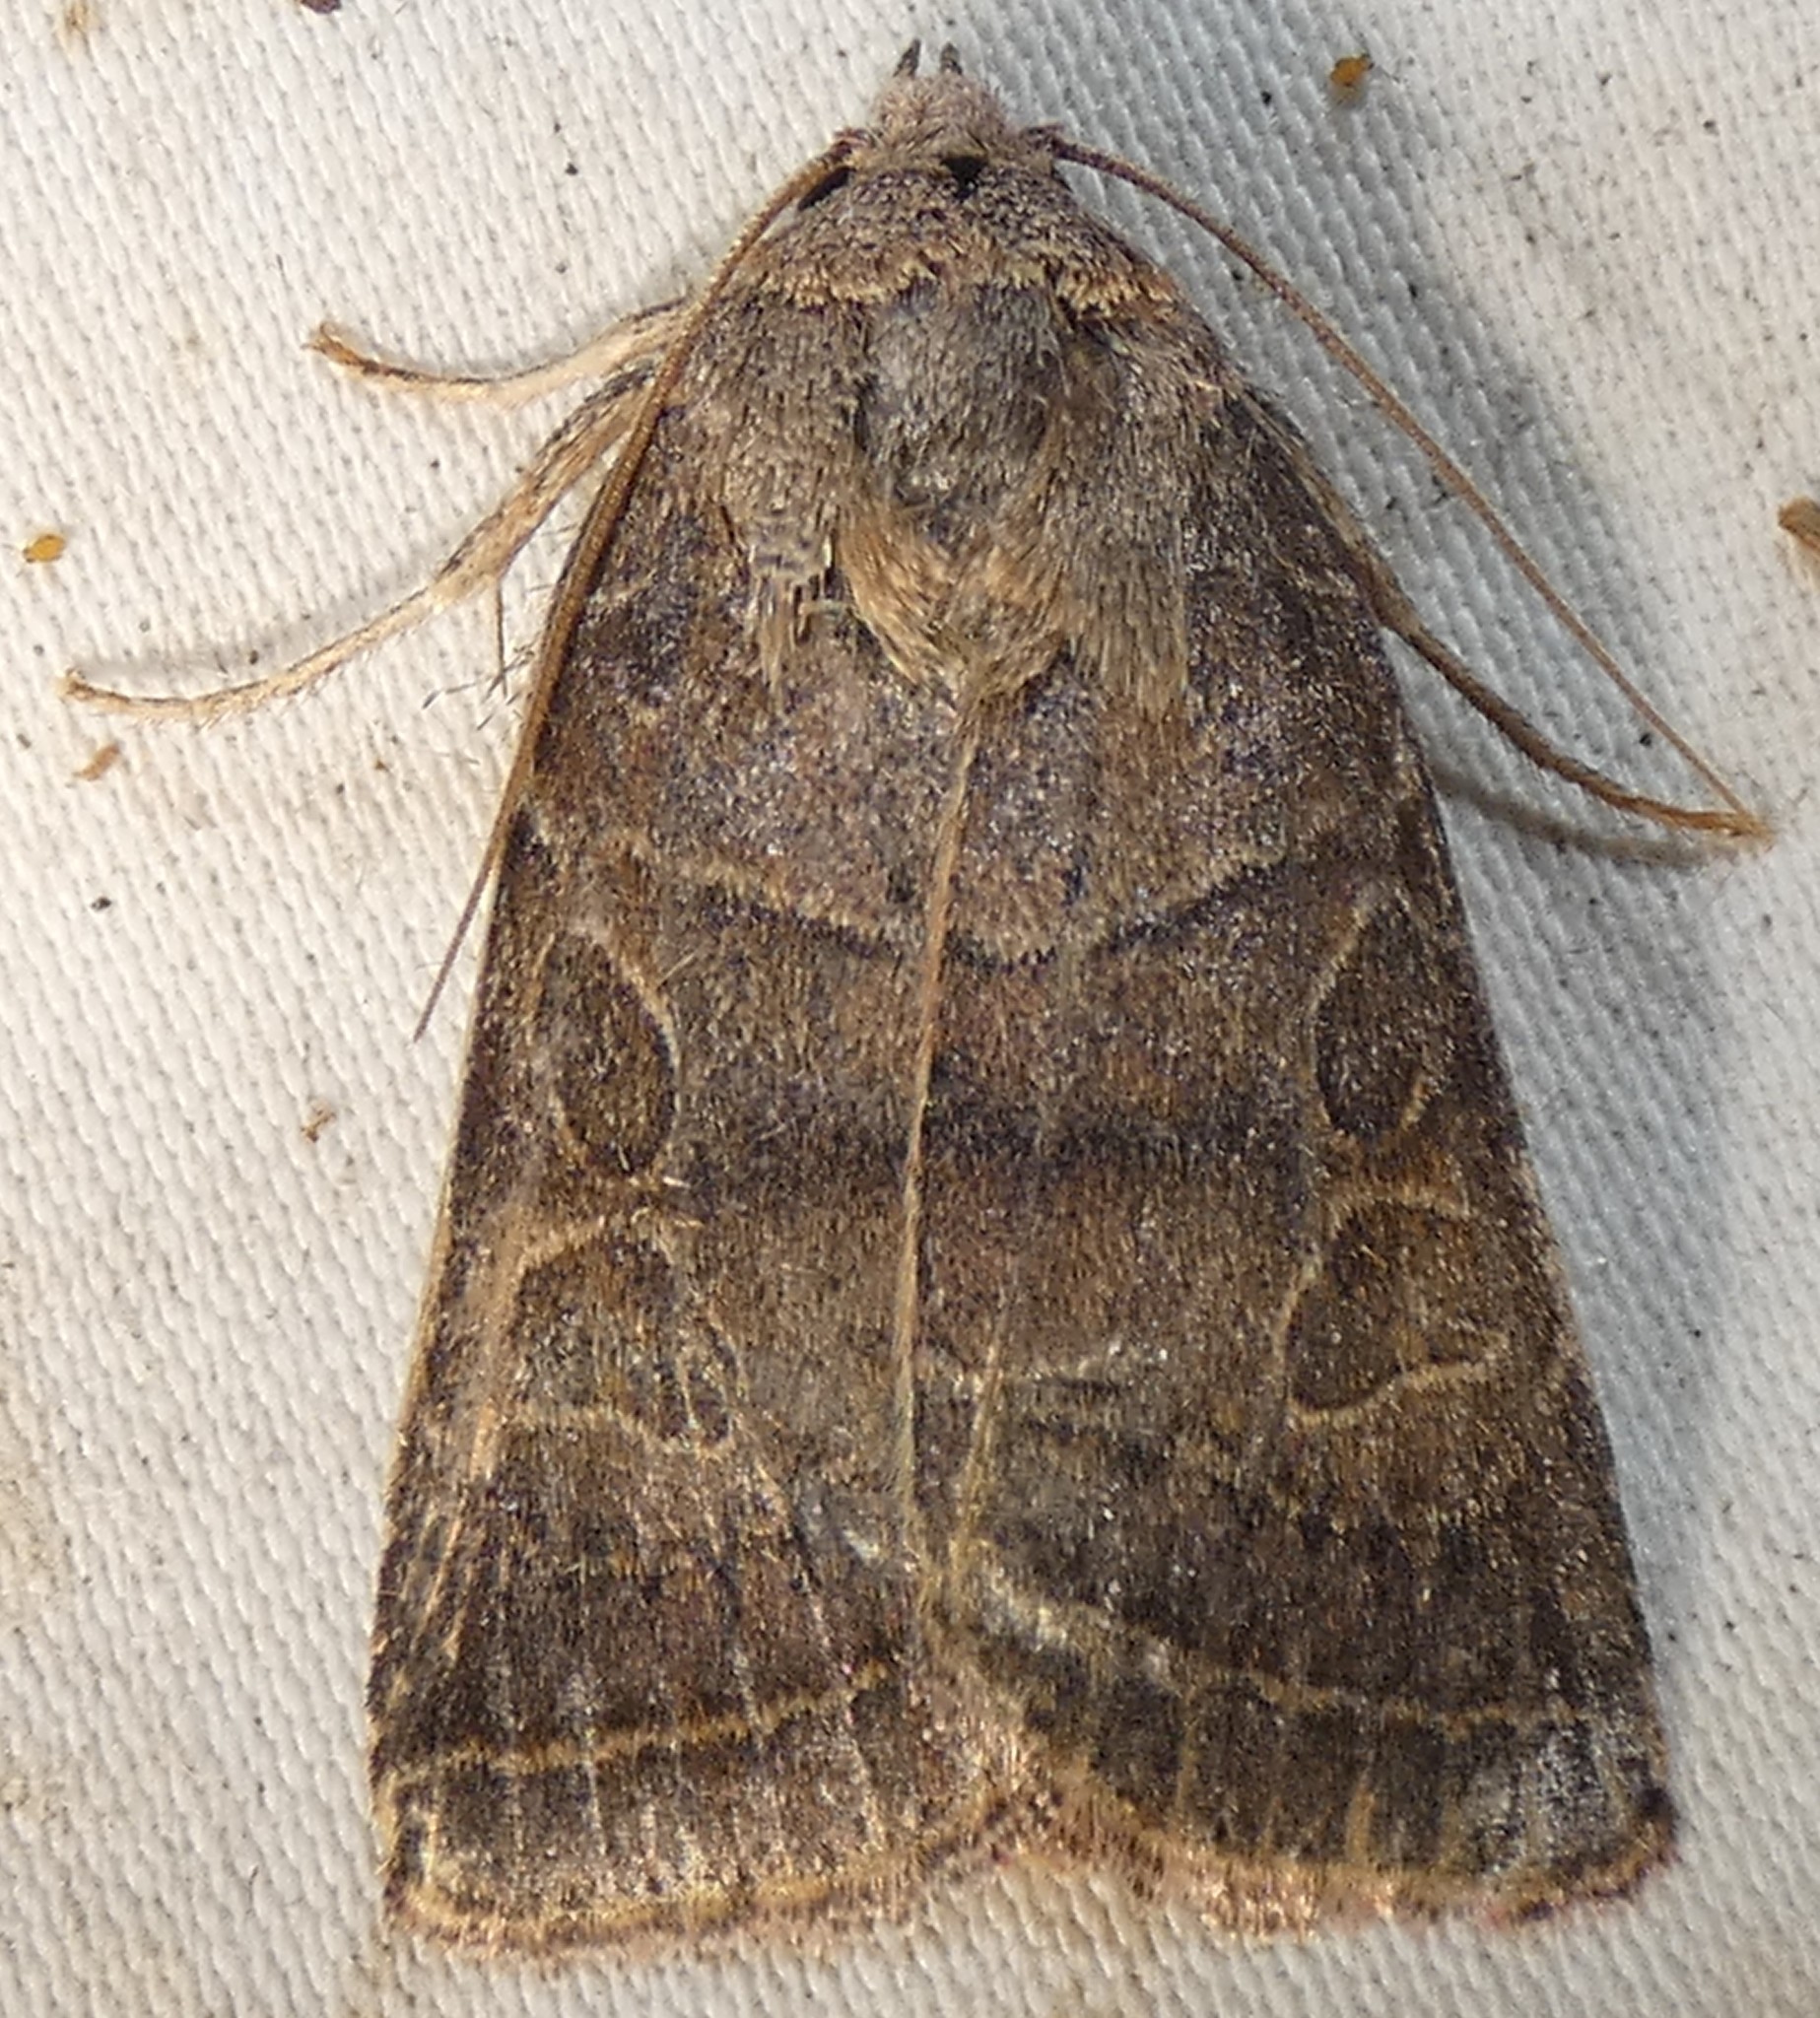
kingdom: Animalia
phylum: Arthropoda
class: Insecta
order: Lepidoptera
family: Noctuidae
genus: Orthodes
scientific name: Orthodes majuscula
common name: Rustic quaker
